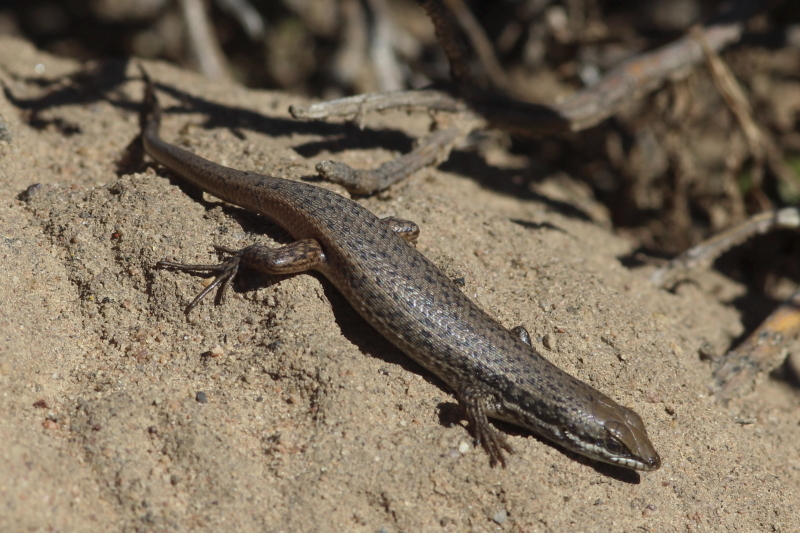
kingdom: Animalia
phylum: Chordata
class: Squamata
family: Scincidae
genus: Trachylepis
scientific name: Trachylepis variegata
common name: Variegated skink
